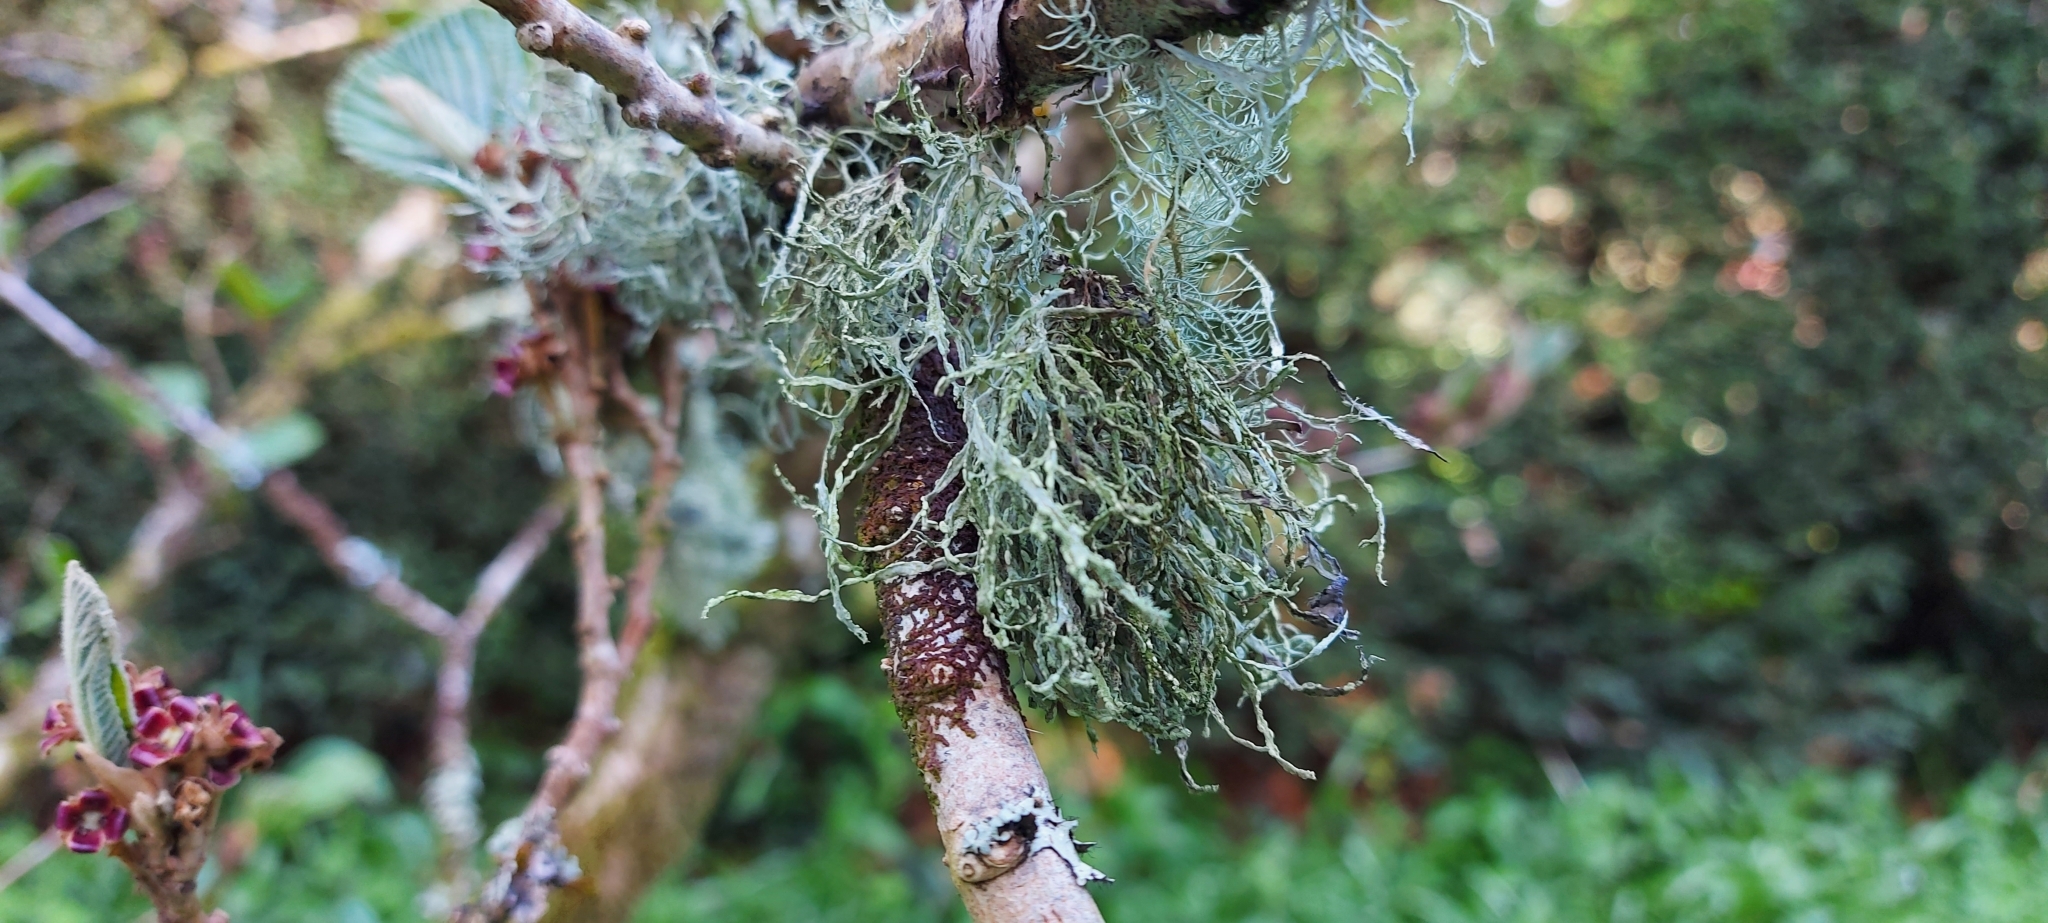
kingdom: Fungi
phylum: Ascomycota
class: Lecanoromycetes
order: Lecanorales
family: Ramalinaceae
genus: Ramalina
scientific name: Ramalina farinacea
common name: Farinose cartilage lichen
